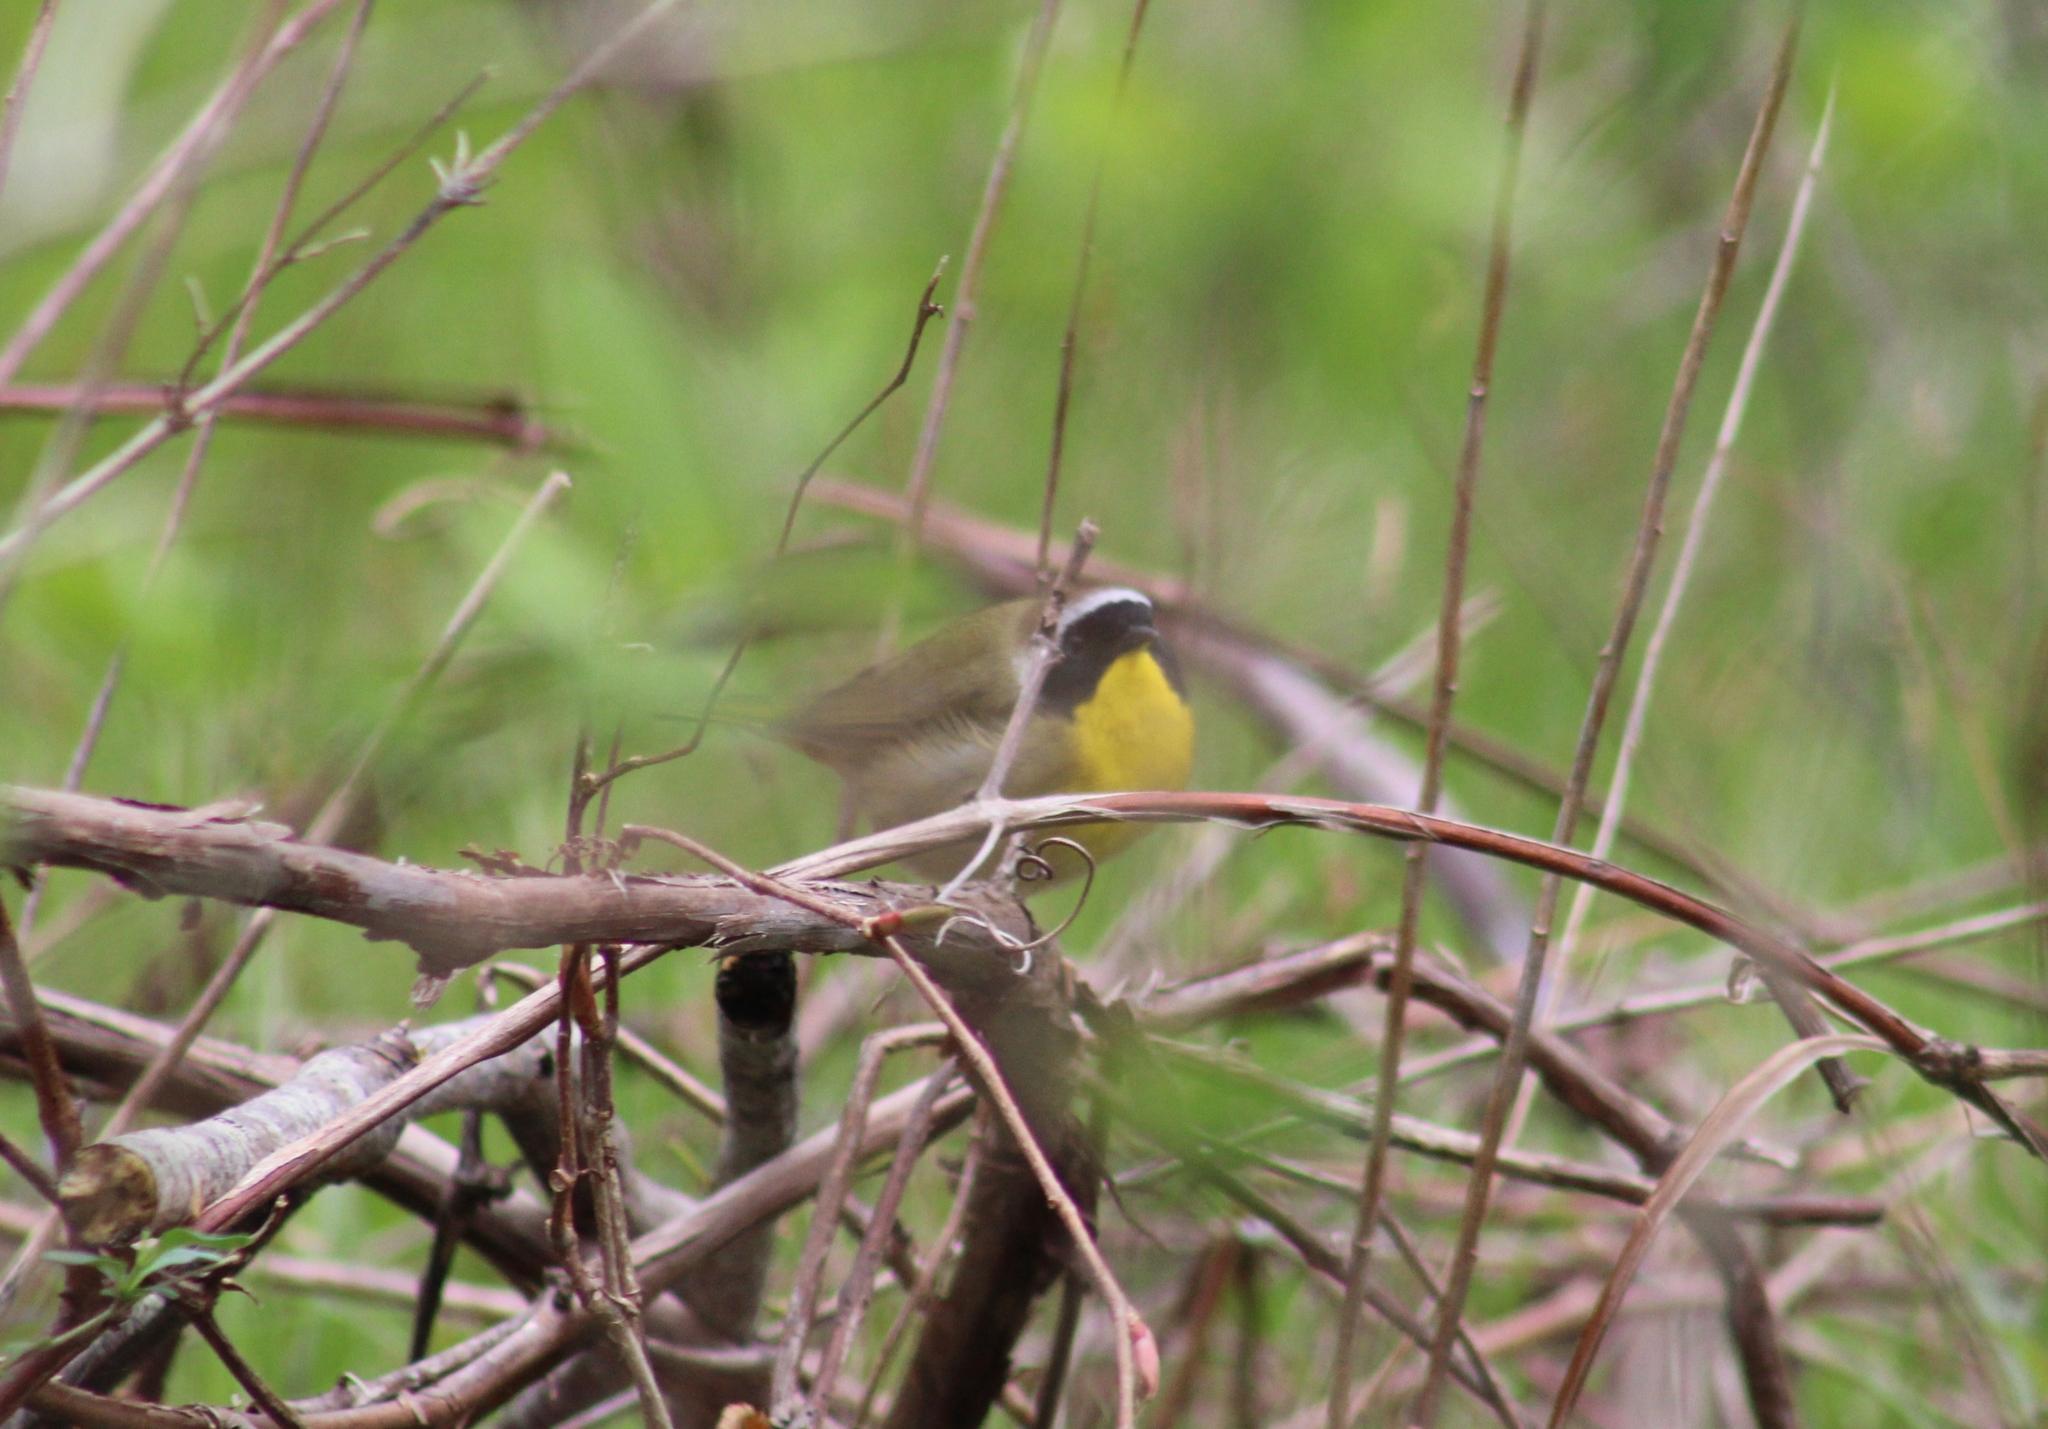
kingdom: Animalia
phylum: Chordata
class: Aves
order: Passeriformes
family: Parulidae
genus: Geothlypis
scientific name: Geothlypis trichas
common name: Common yellowthroat
